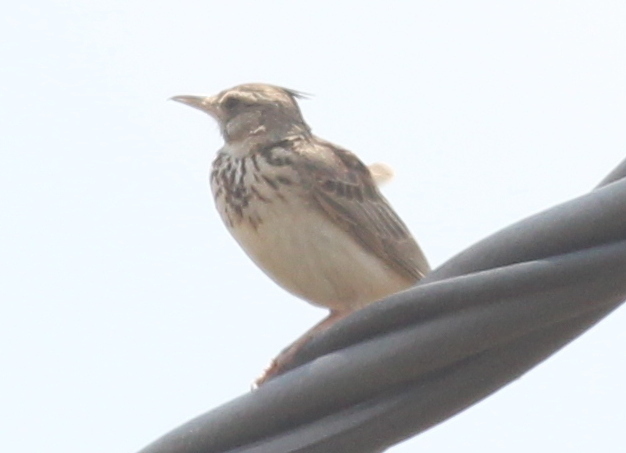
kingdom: Animalia
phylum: Chordata
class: Aves
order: Passeriformes
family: Alaudidae
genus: Galerida
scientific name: Galerida cristata
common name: Crested lark
